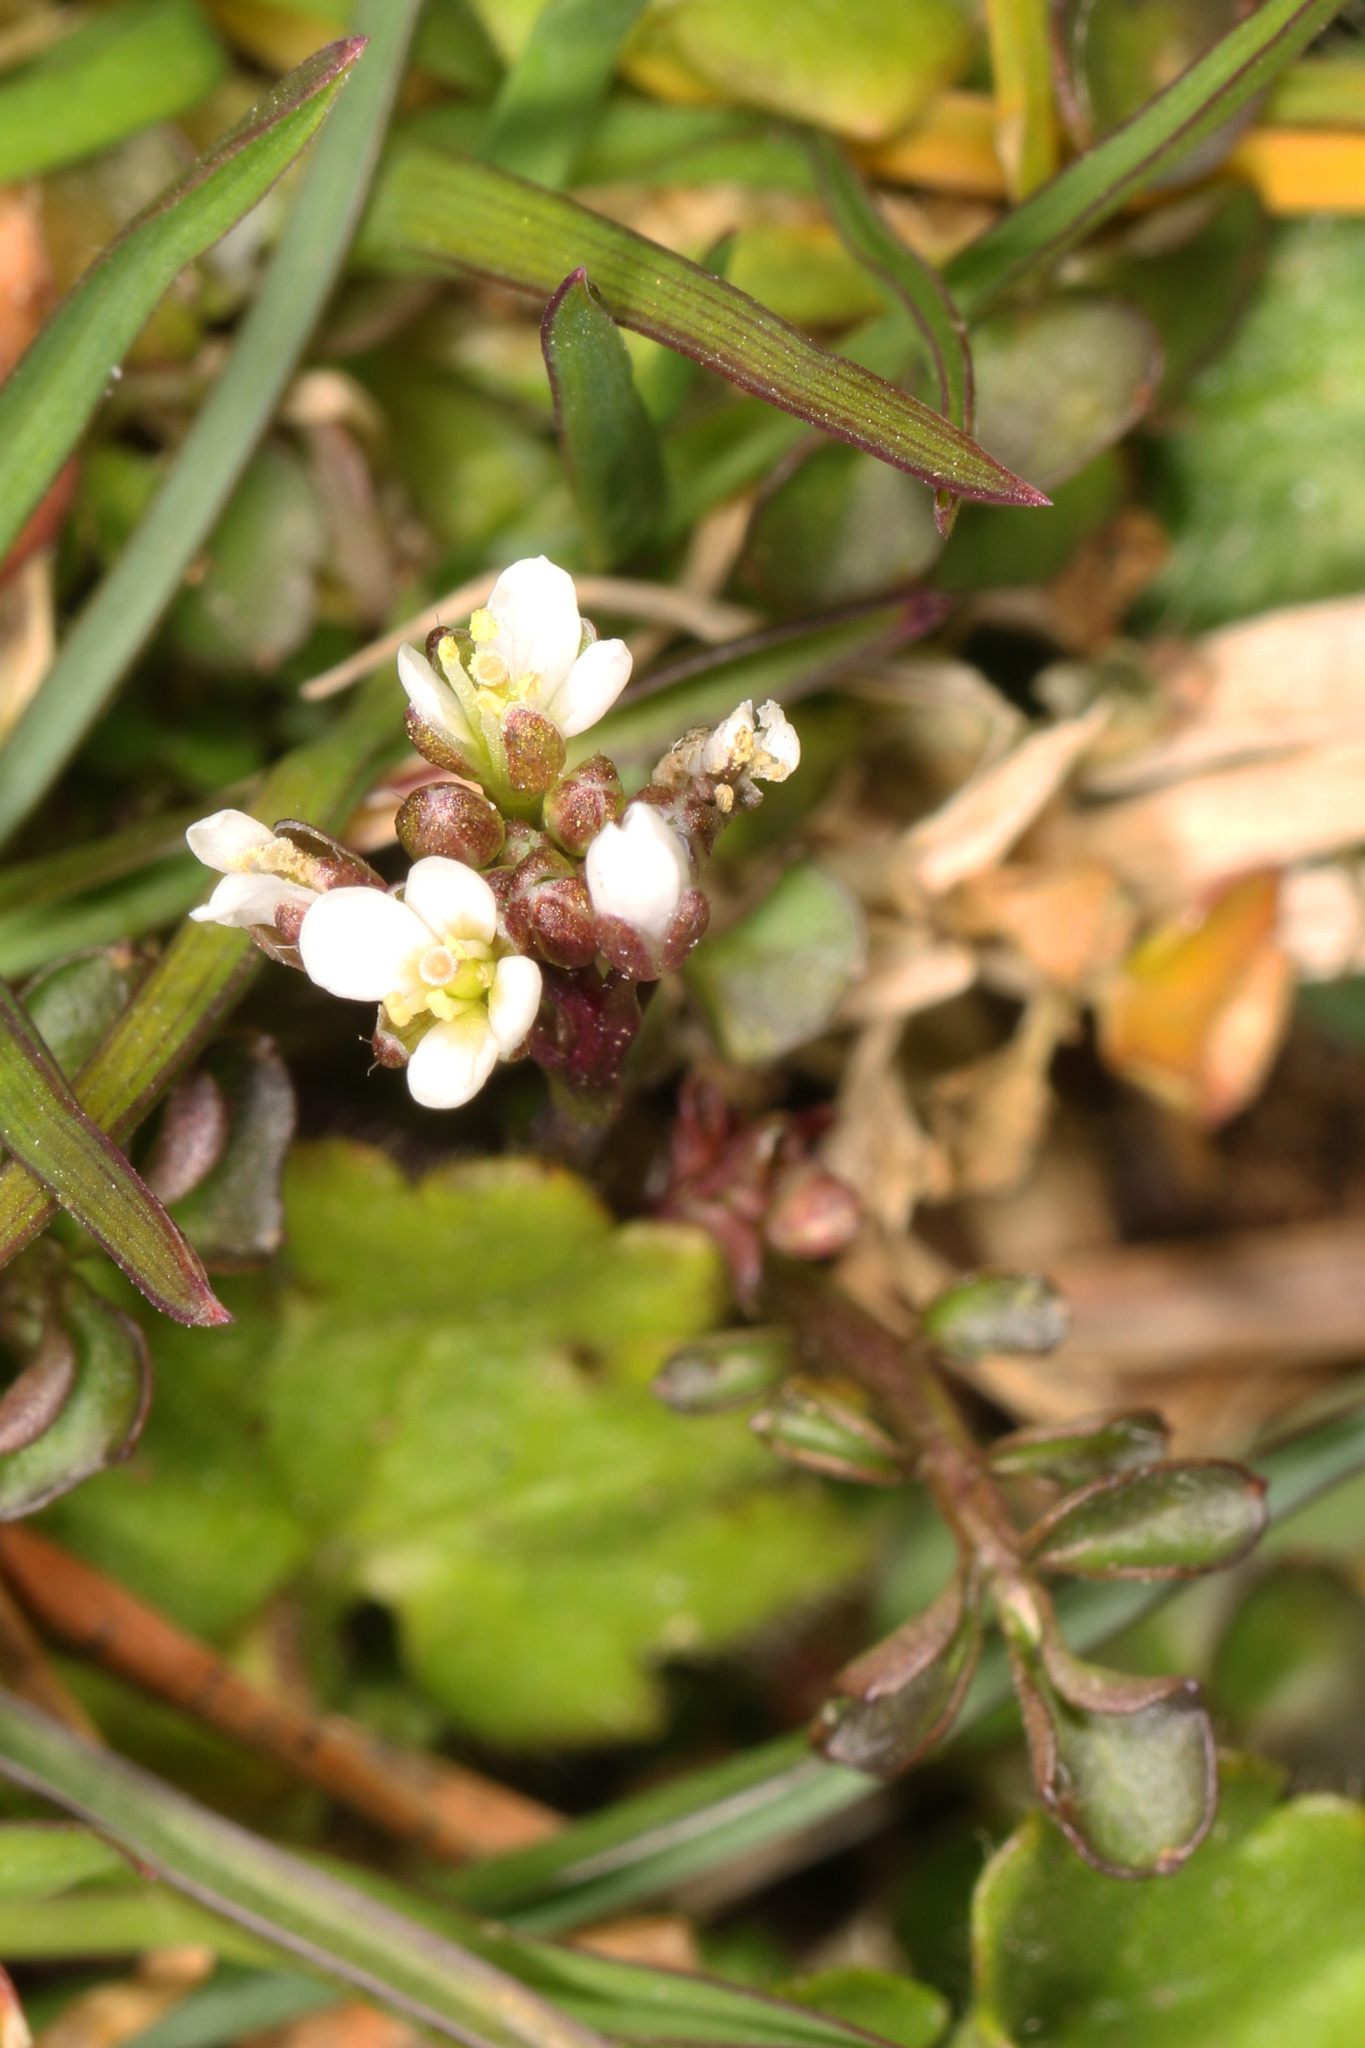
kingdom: Plantae
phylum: Tracheophyta
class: Magnoliopsida
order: Brassicales
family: Brassicaceae
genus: Cardamine
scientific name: Cardamine hirsuta
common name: Hairy bittercress
